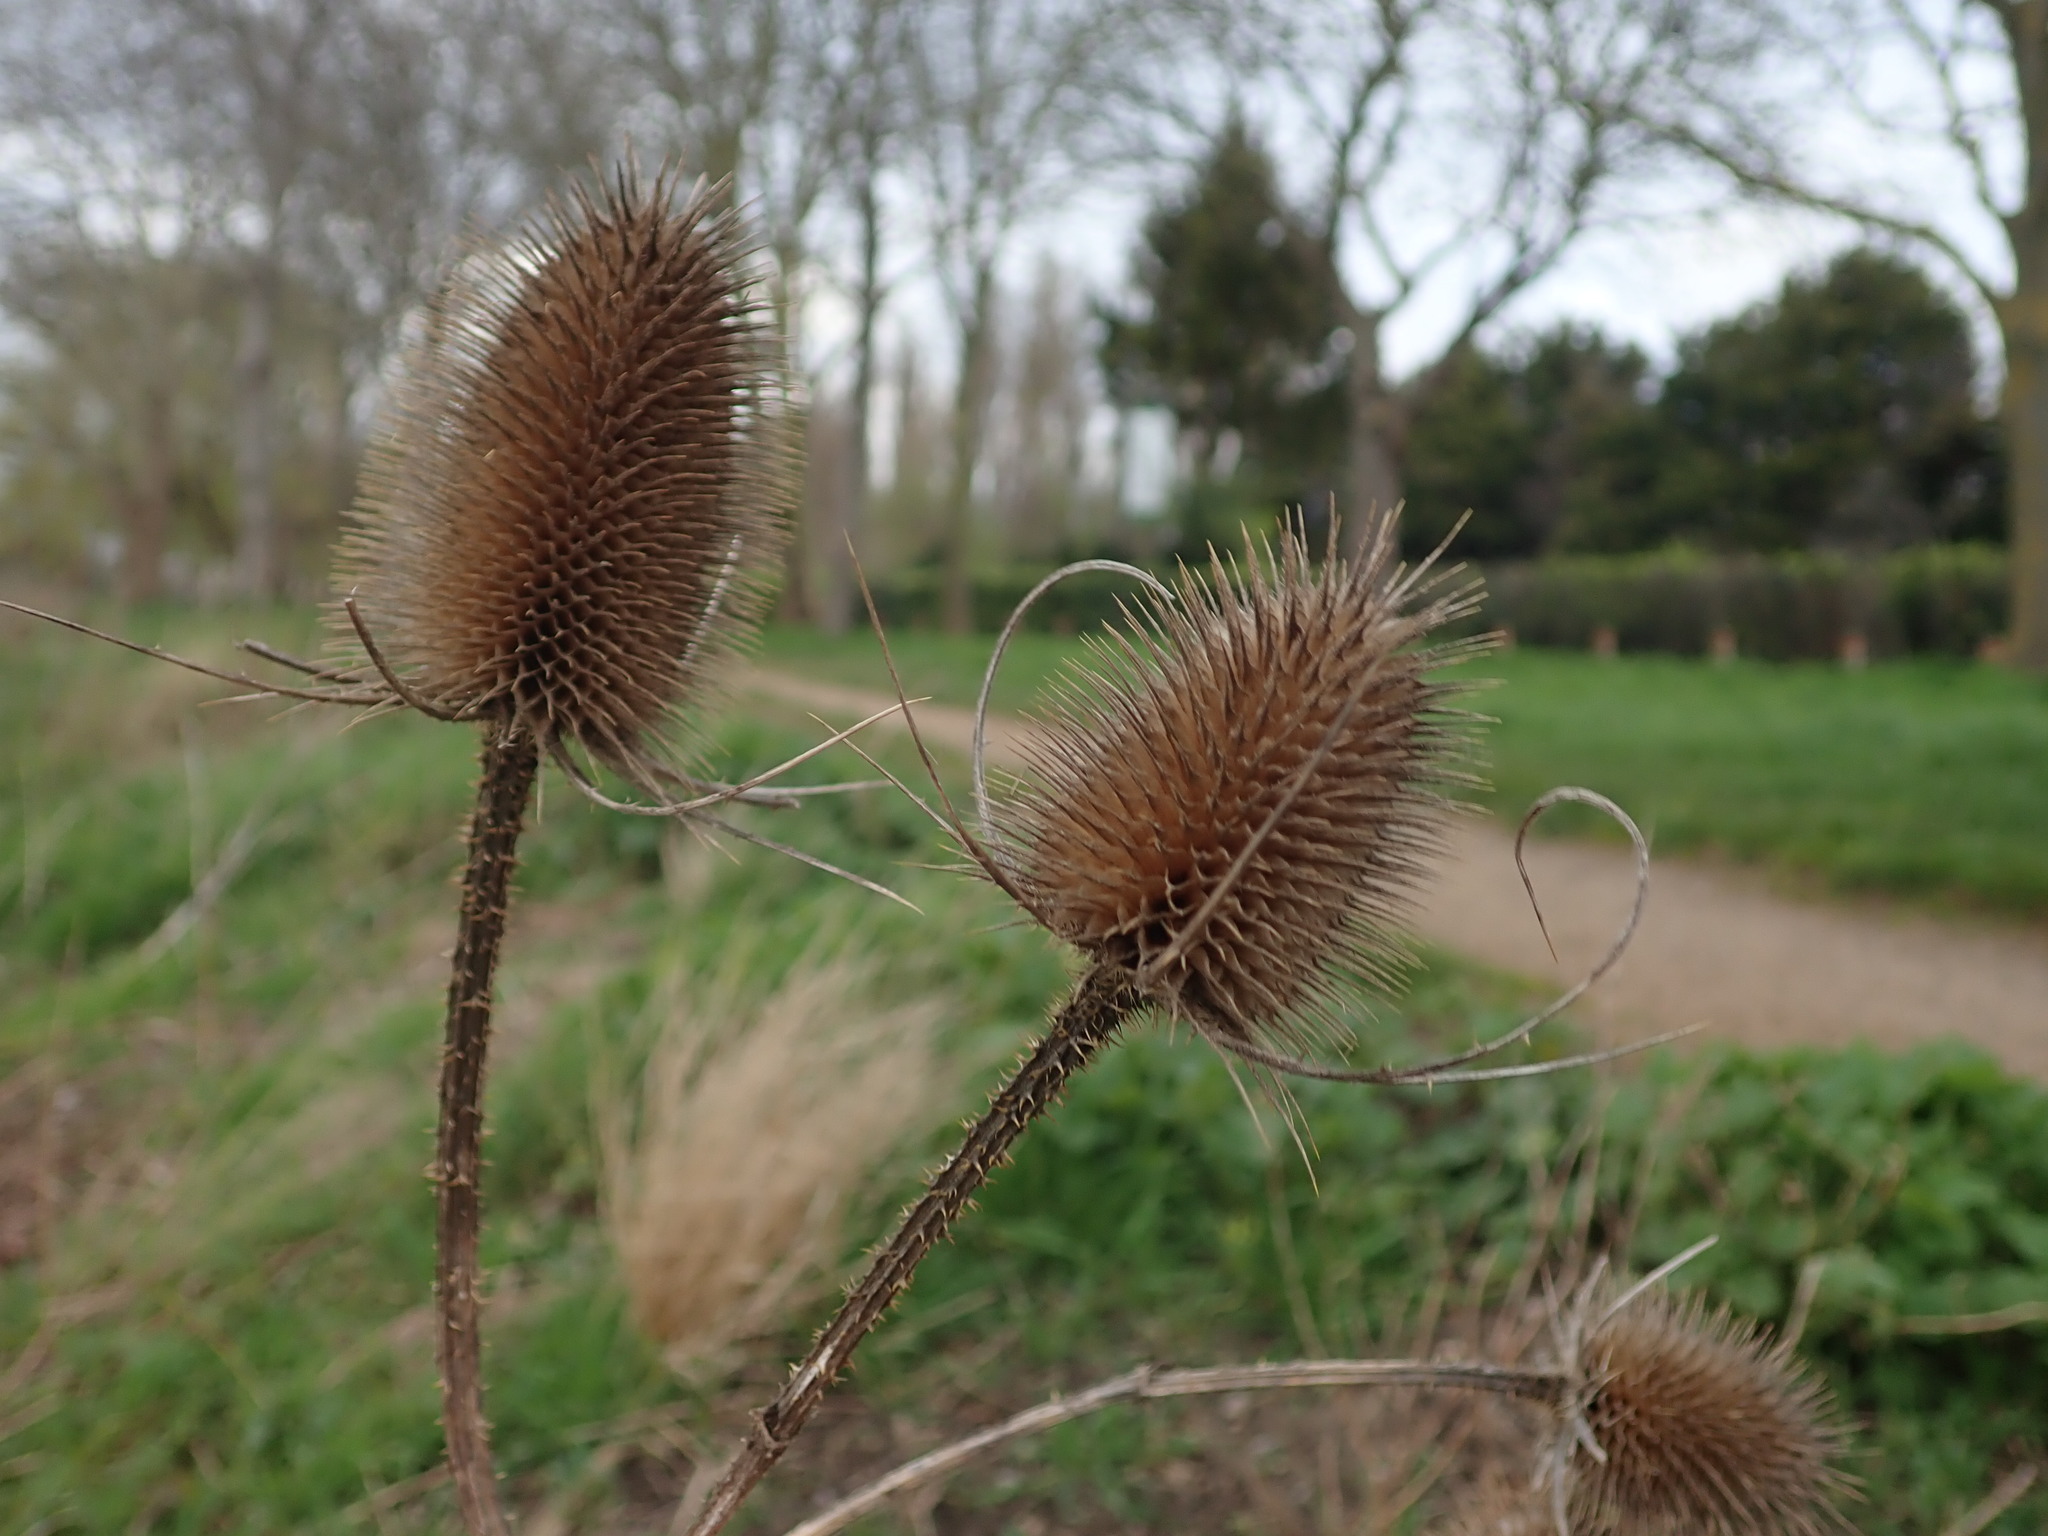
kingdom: Plantae
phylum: Tracheophyta
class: Magnoliopsida
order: Dipsacales
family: Caprifoliaceae
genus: Dipsacus
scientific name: Dipsacus fullonum
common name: Teasel
